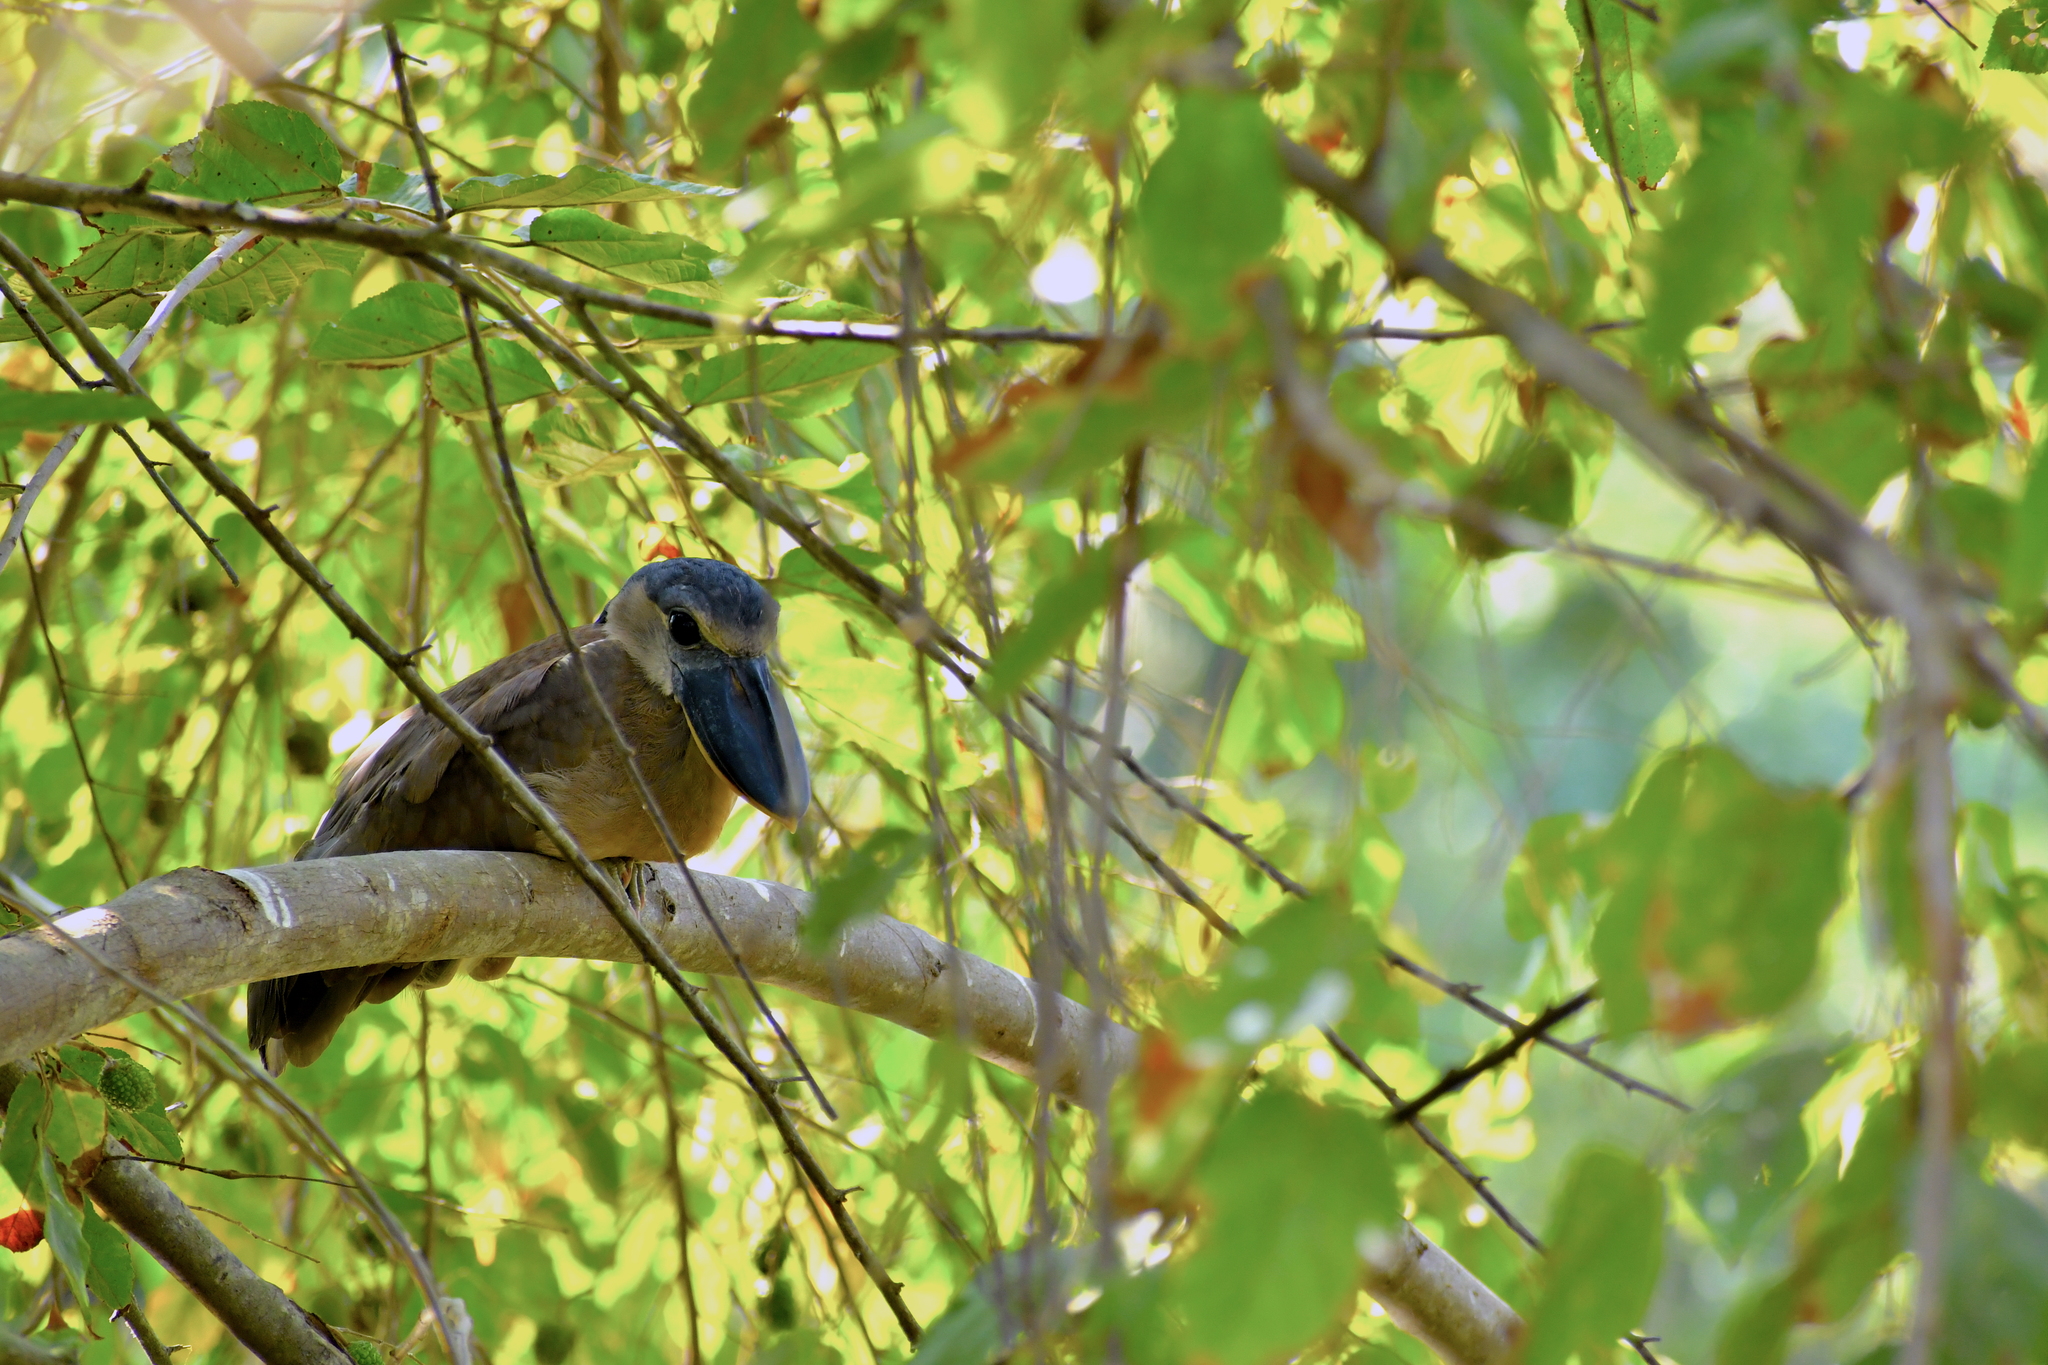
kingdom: Animalia
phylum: Chordata
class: Aves
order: Pelecaniformes
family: Ardeidae
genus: Cochlearius
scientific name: Cochlearius cochlearius
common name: Boat-billed heron
